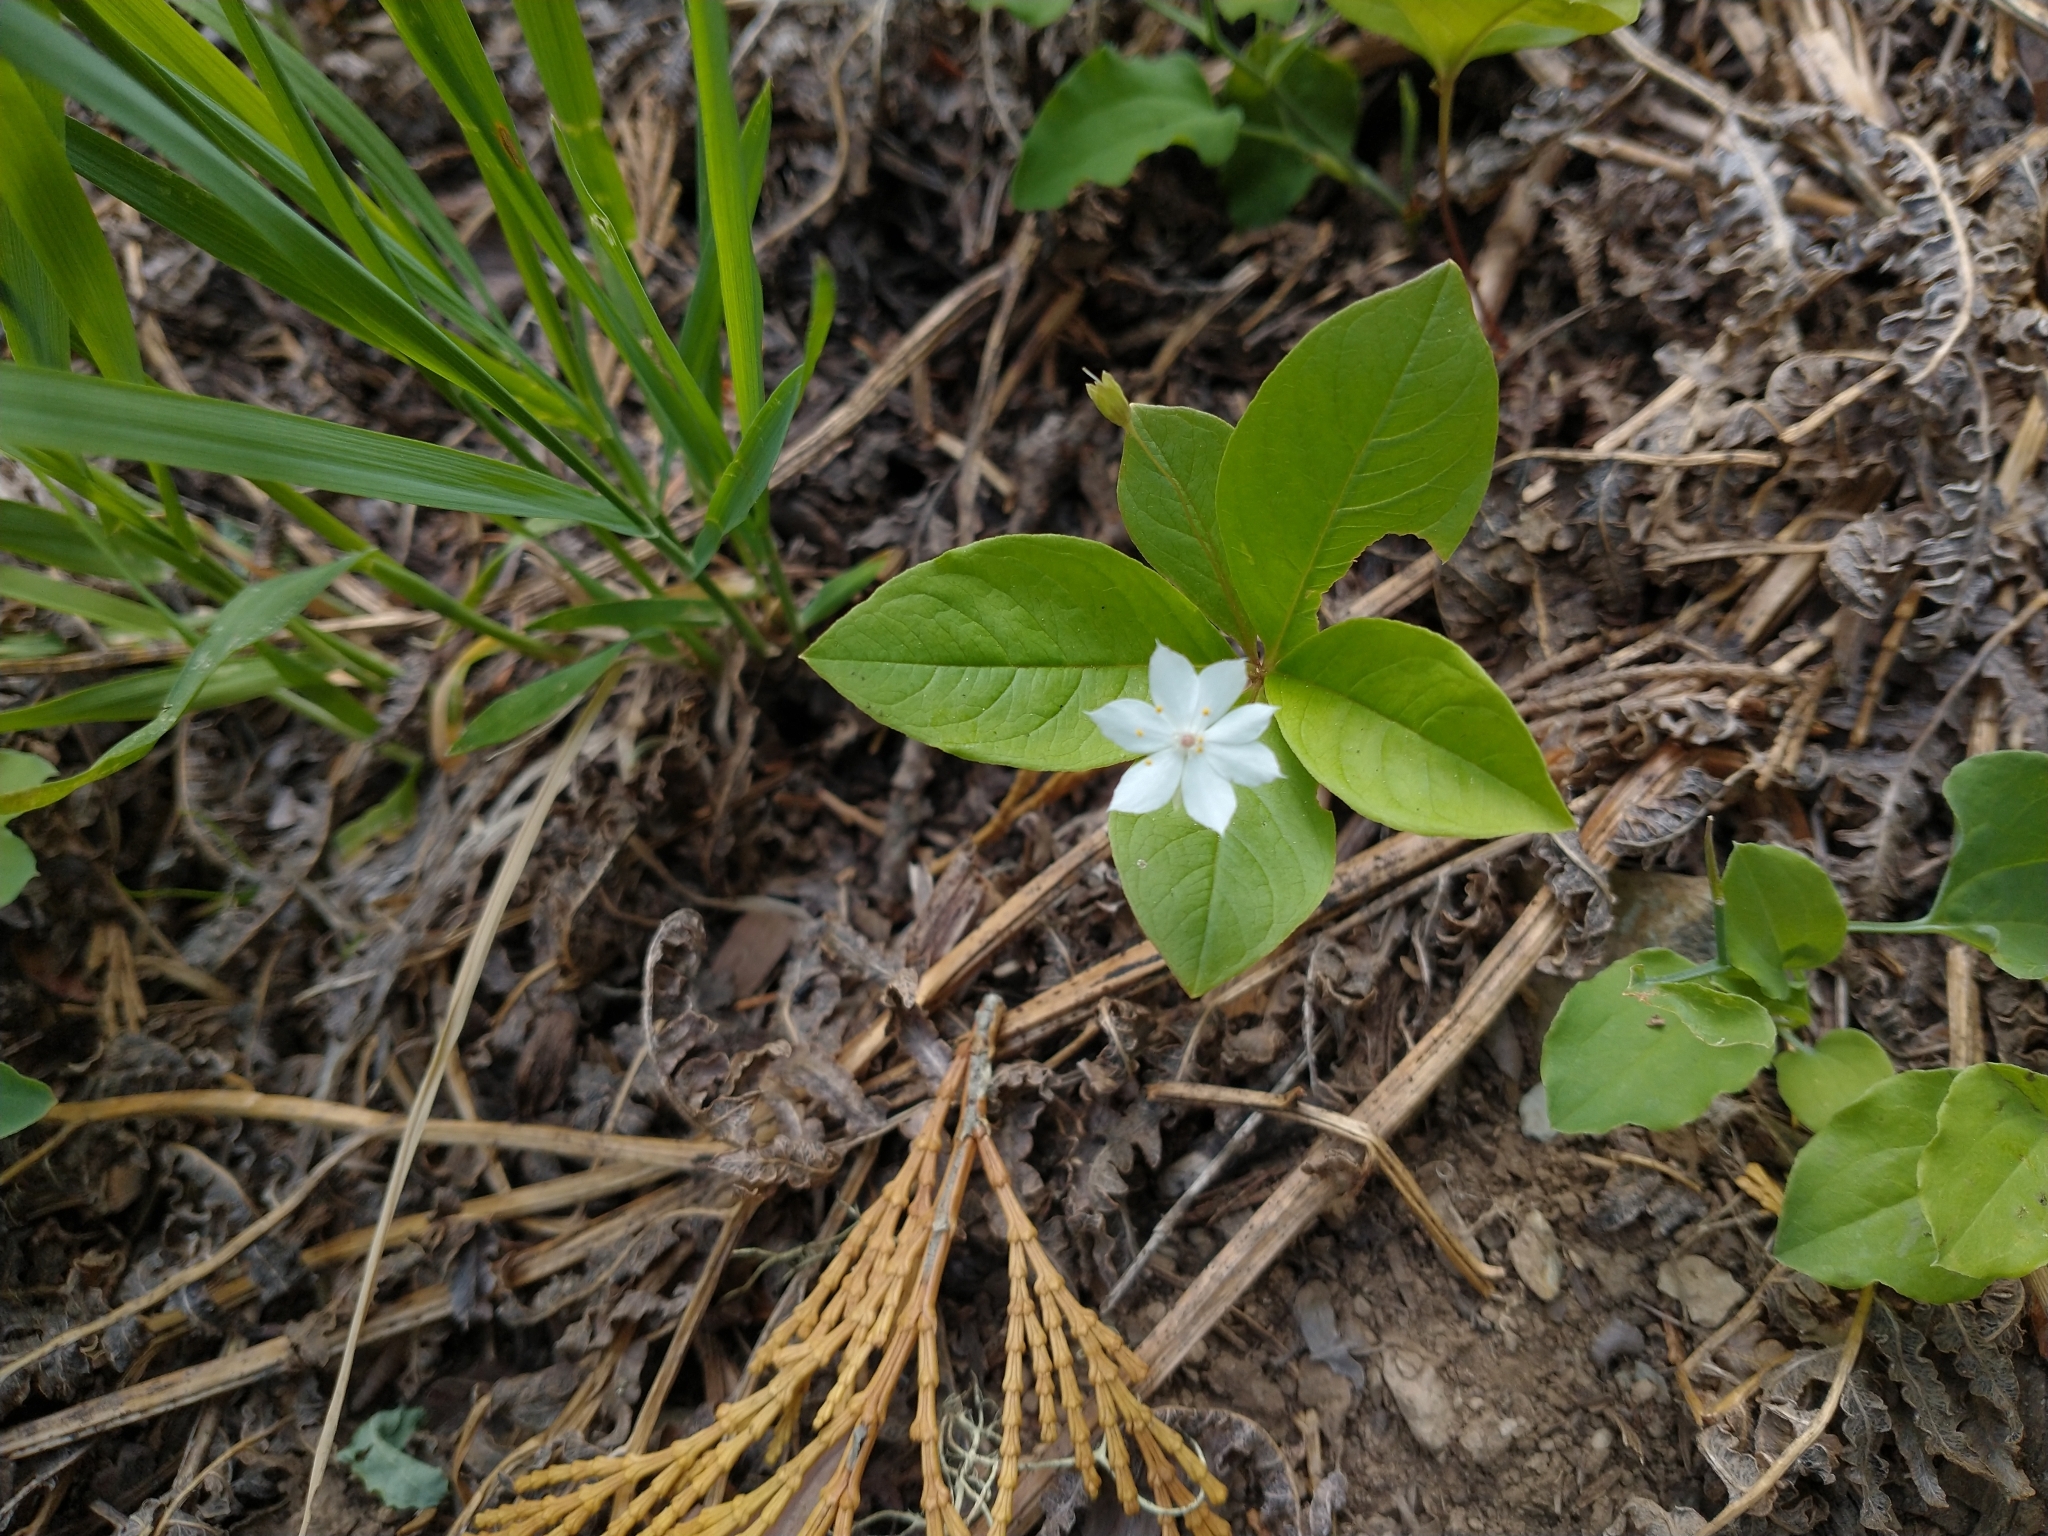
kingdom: Plantae
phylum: Tracheophyta
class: Magnoliopsida
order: Ericales
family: Primulaceae
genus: Lysimachia
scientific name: Lysimachia latifolia
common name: Pacific starflower
